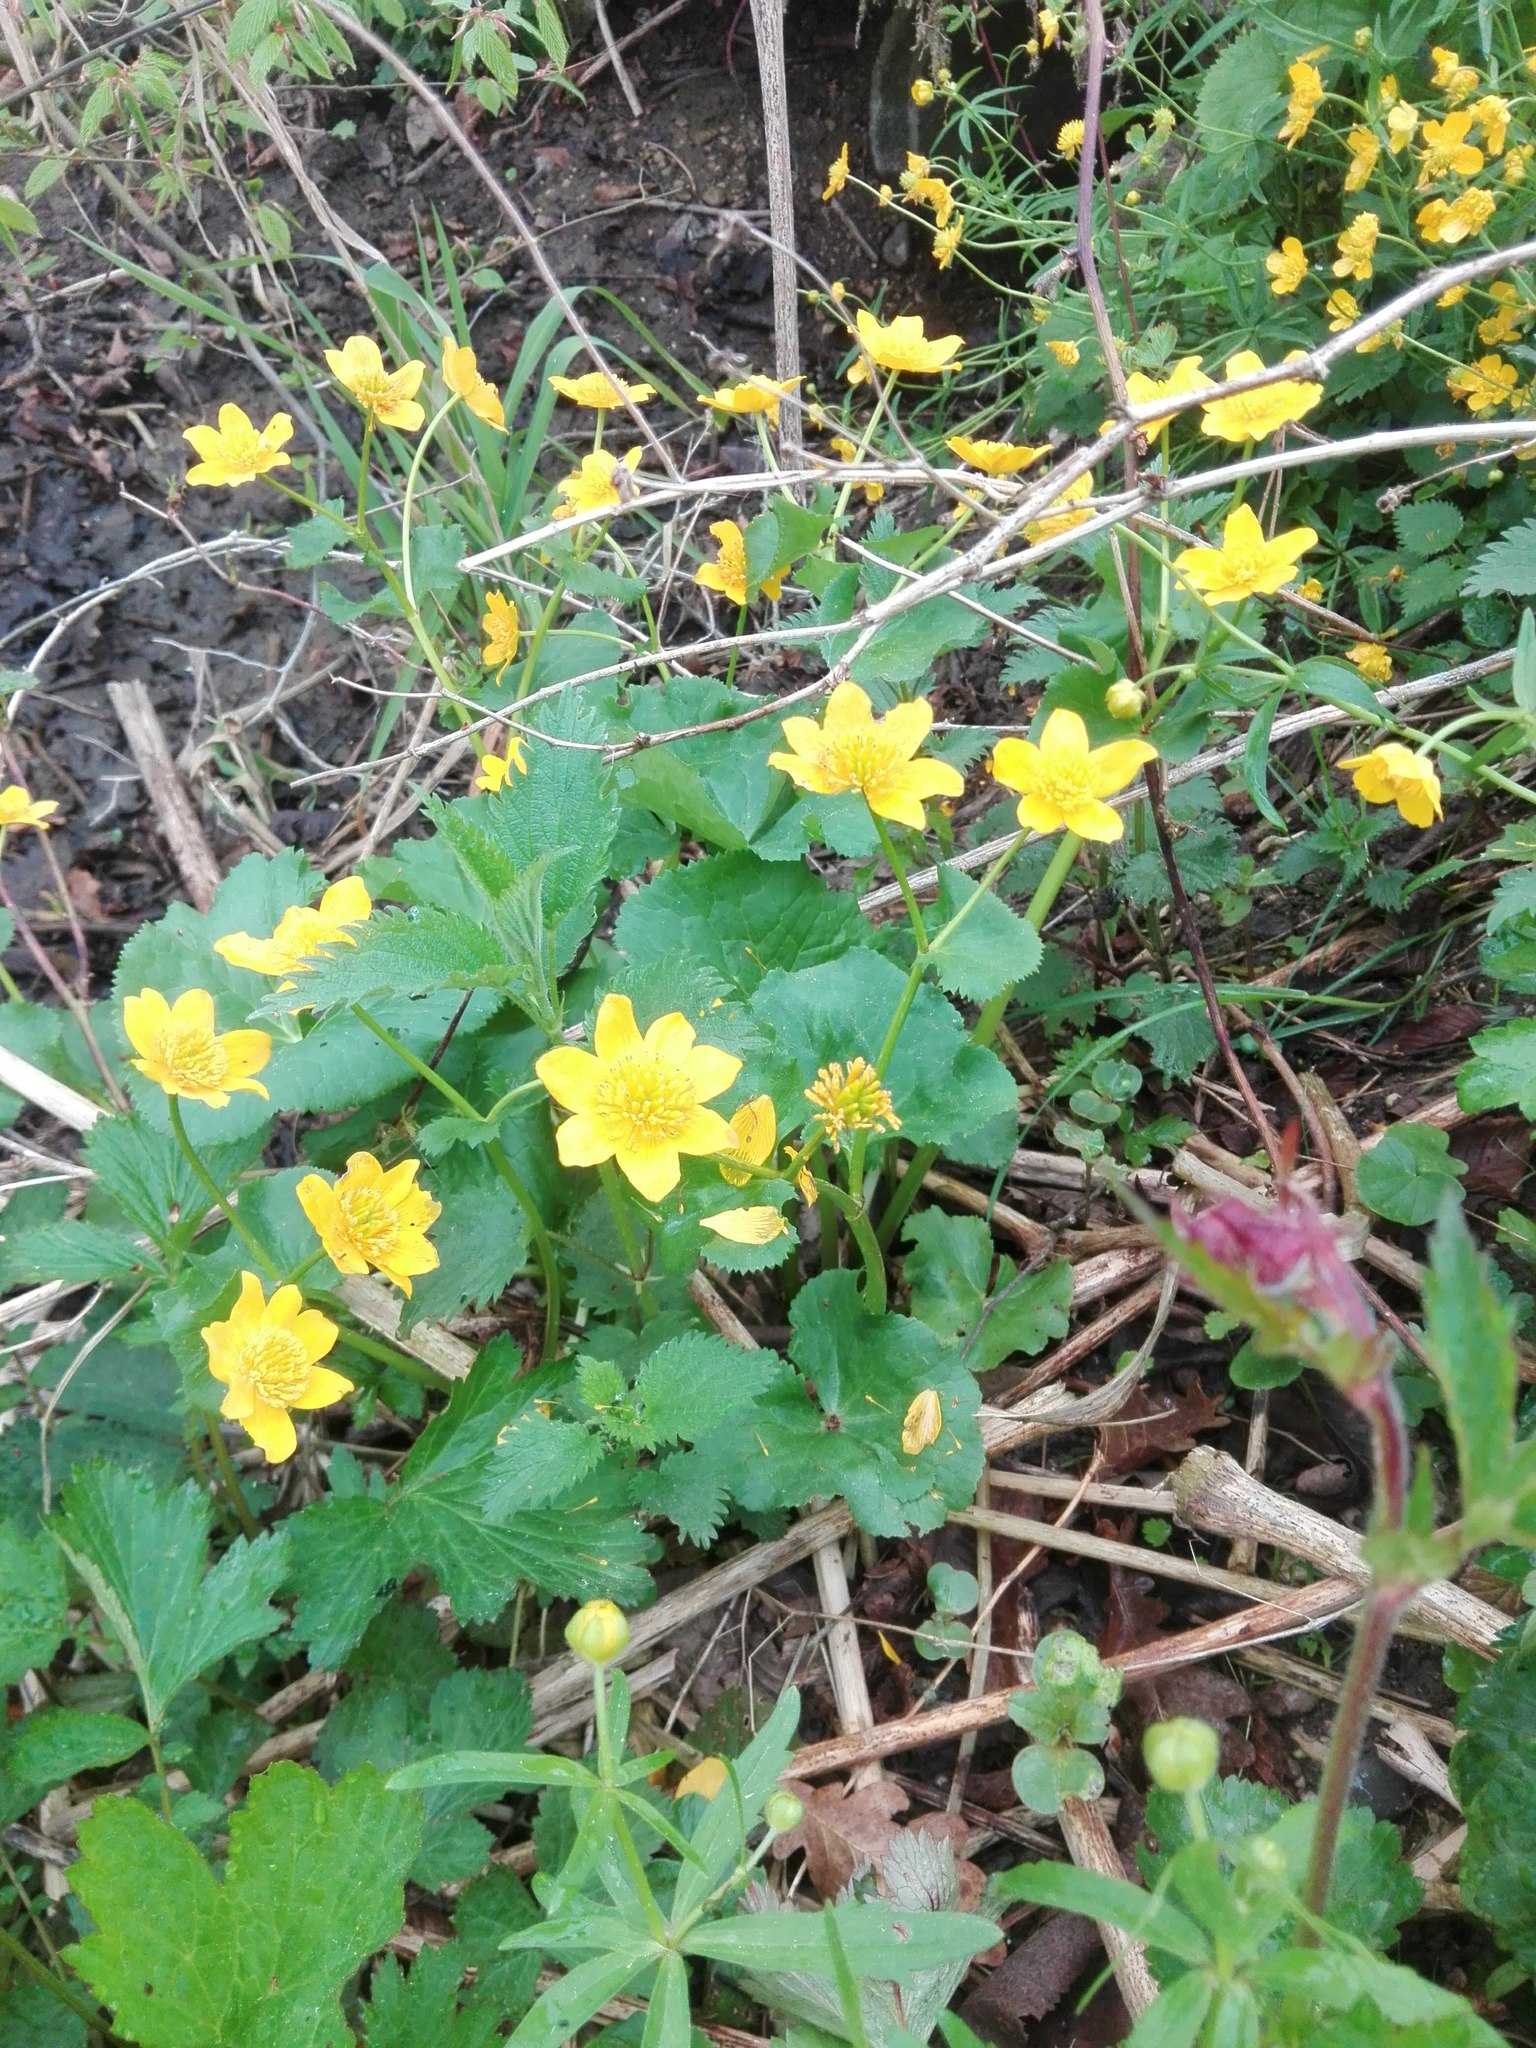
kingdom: Plantae
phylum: Tracheophyta
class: Magnoliopsida
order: Ranunculales
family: Ranunculaceae
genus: Caltha
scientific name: Caltha palustris
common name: Marsh marigold
